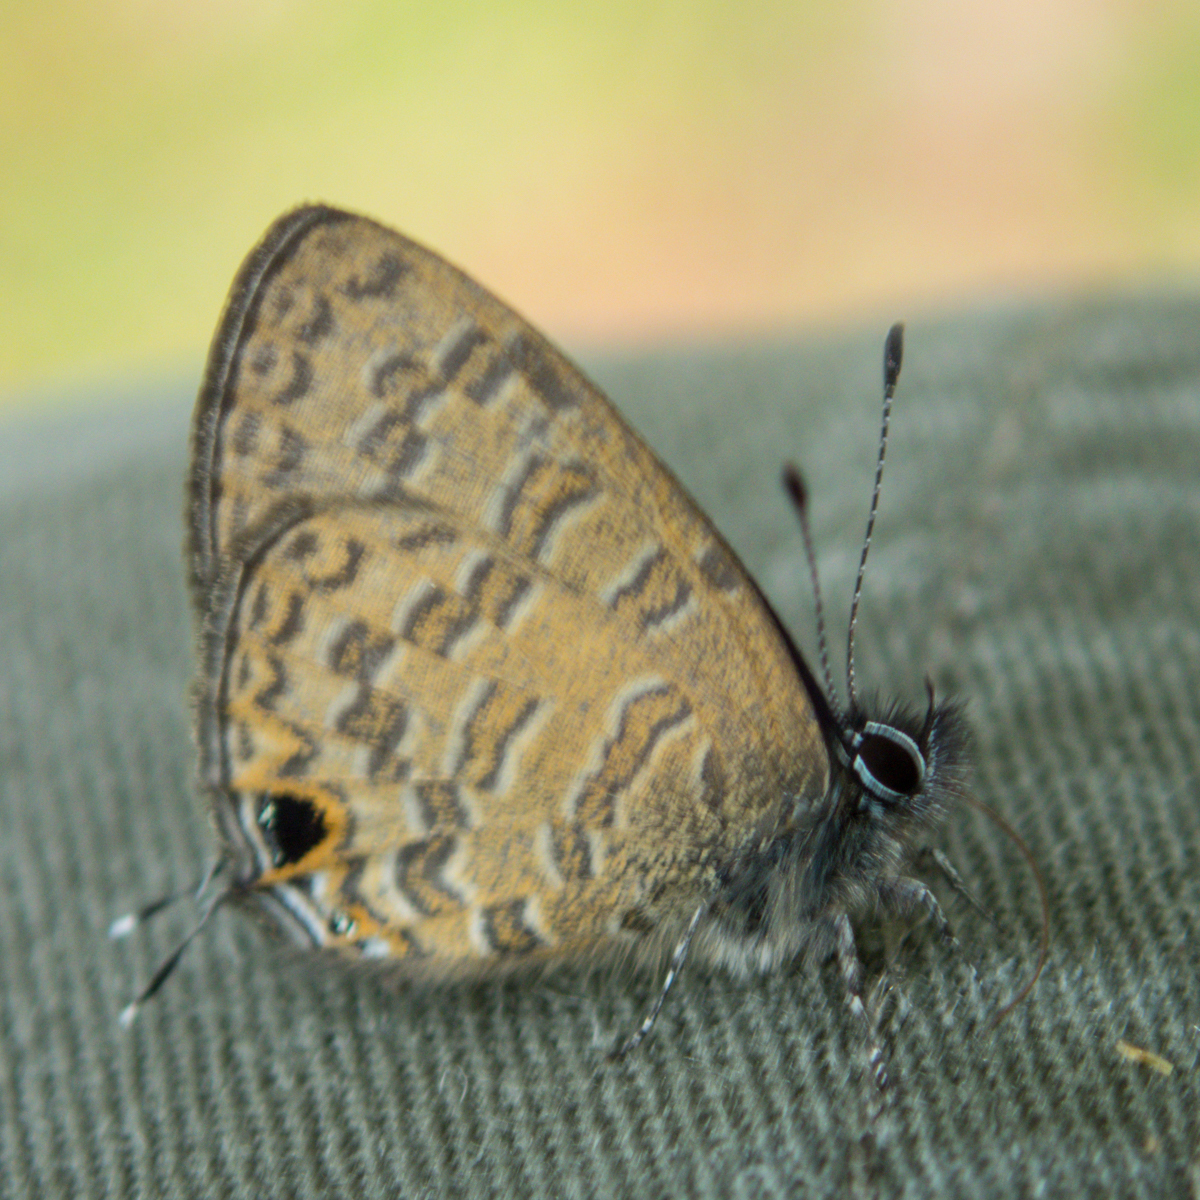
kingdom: Animalia
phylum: Arthropoda
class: Insecta
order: Lepidoptera
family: Lycaenidae
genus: Prosotas
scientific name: Prosotas nora
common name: Common line blue
